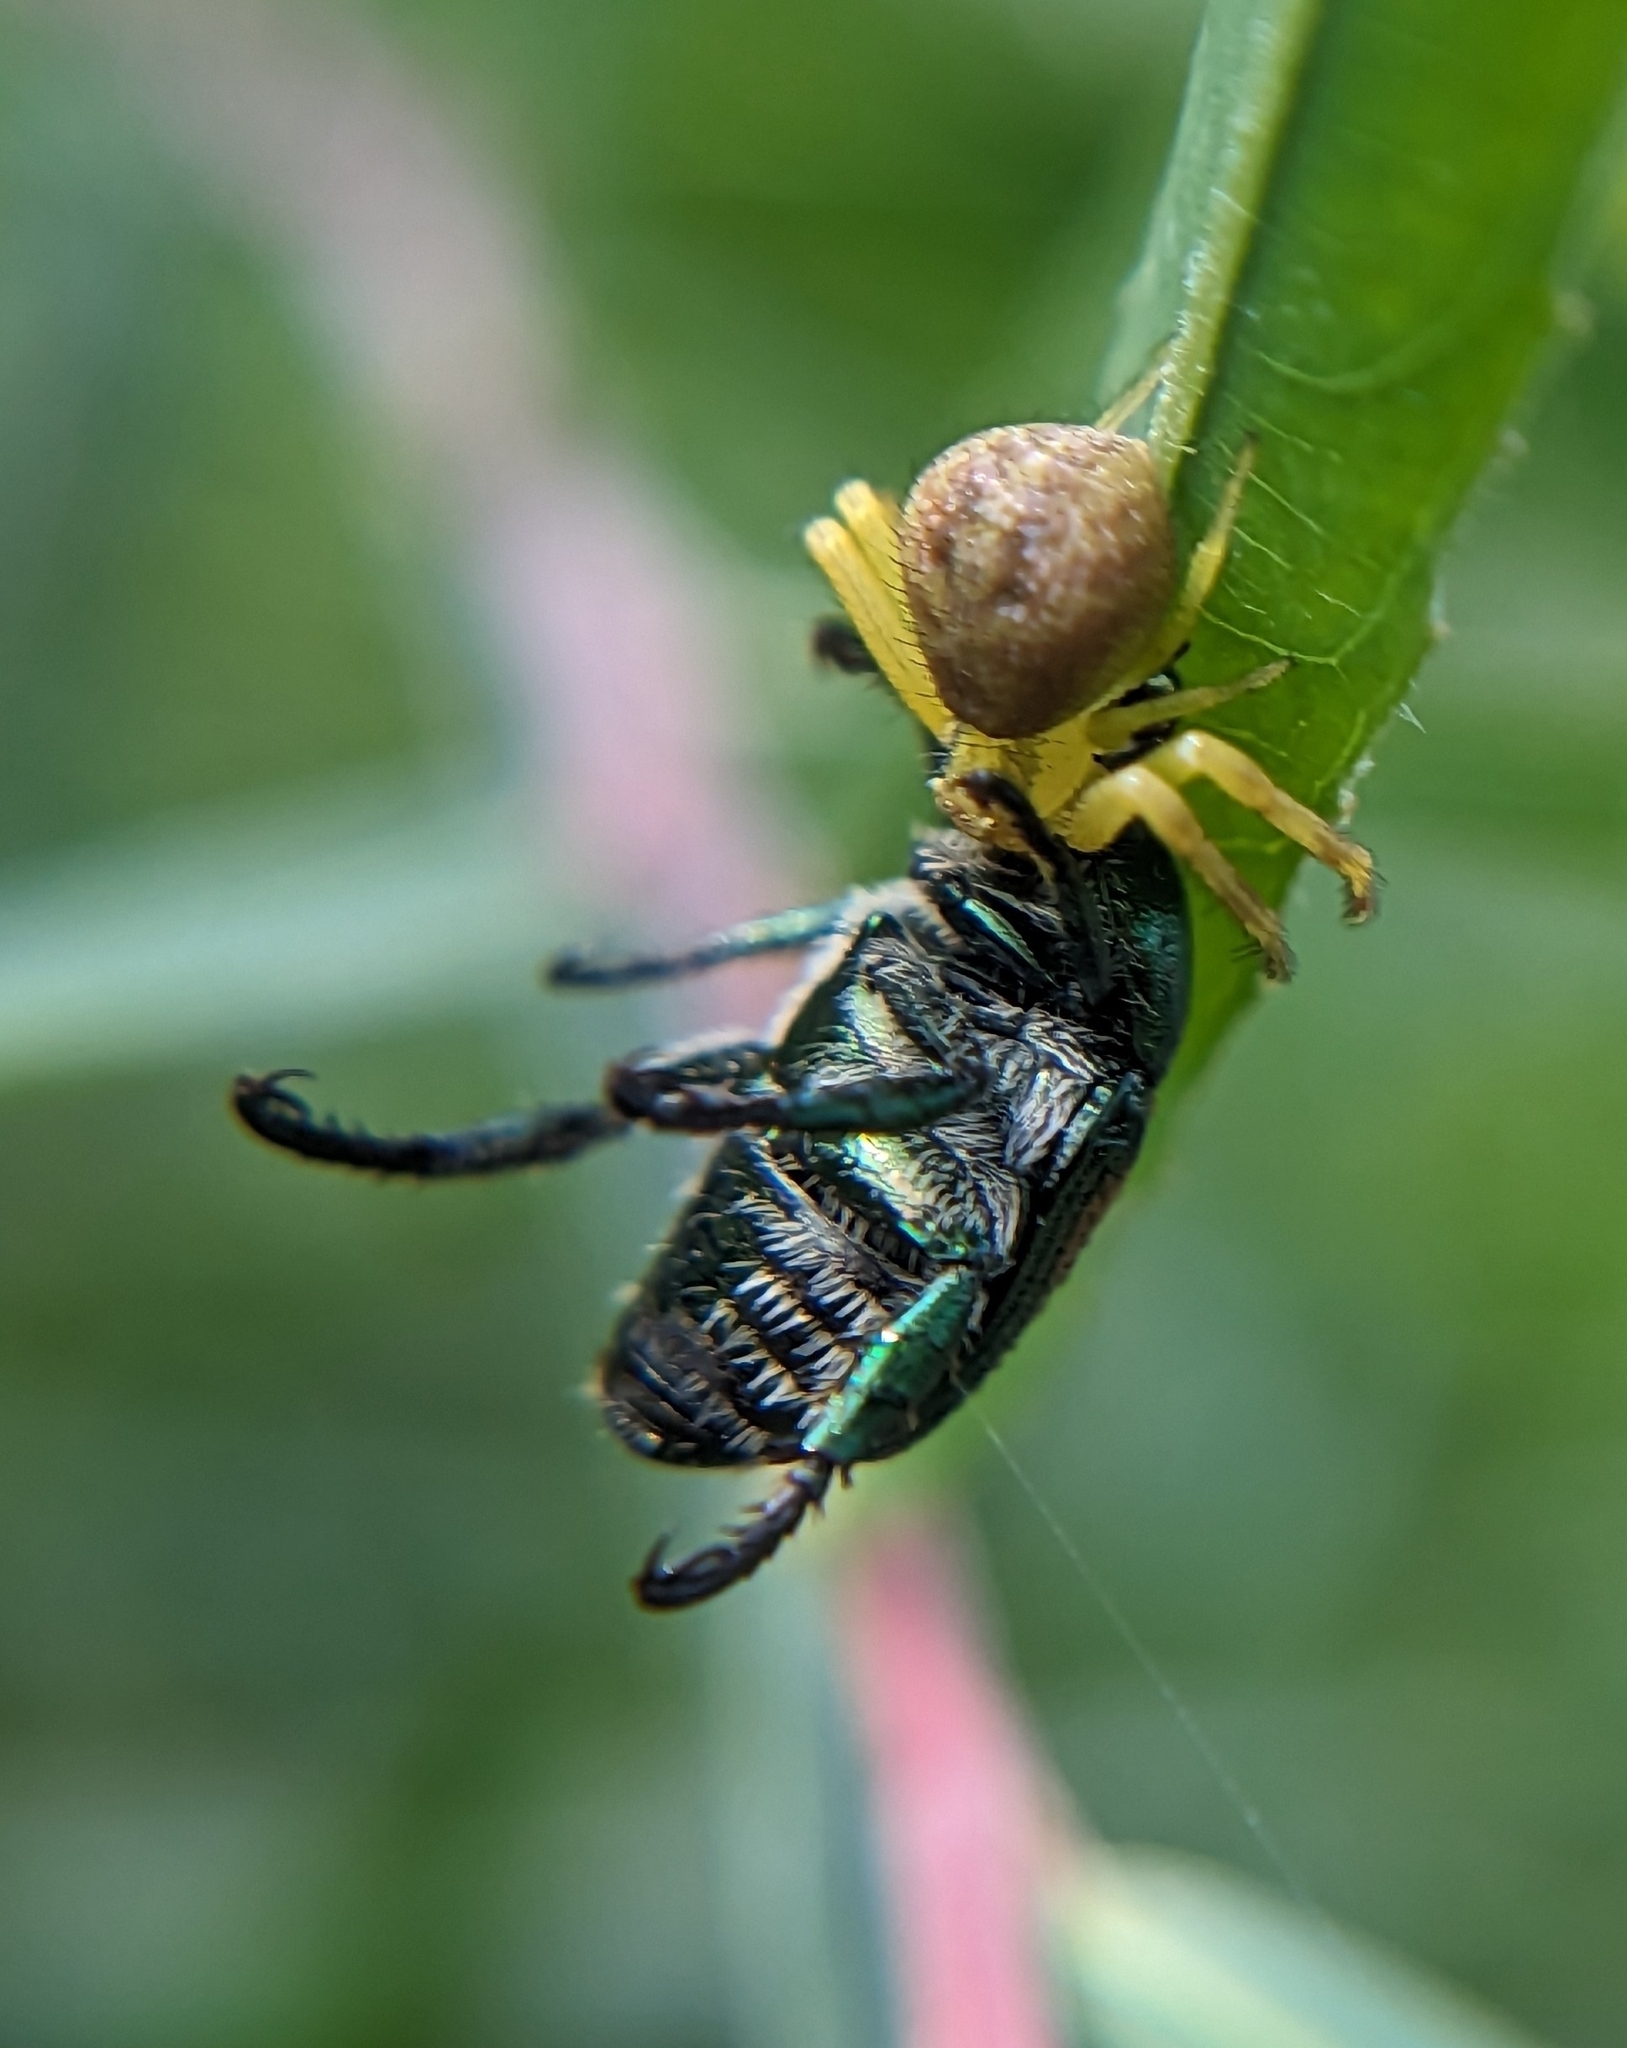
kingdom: Animalia
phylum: Arthropoda
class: Insecta
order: Coleoptera
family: Scarabaeidae
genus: Popillia
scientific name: Popillia japonica
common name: Japanese beetle
